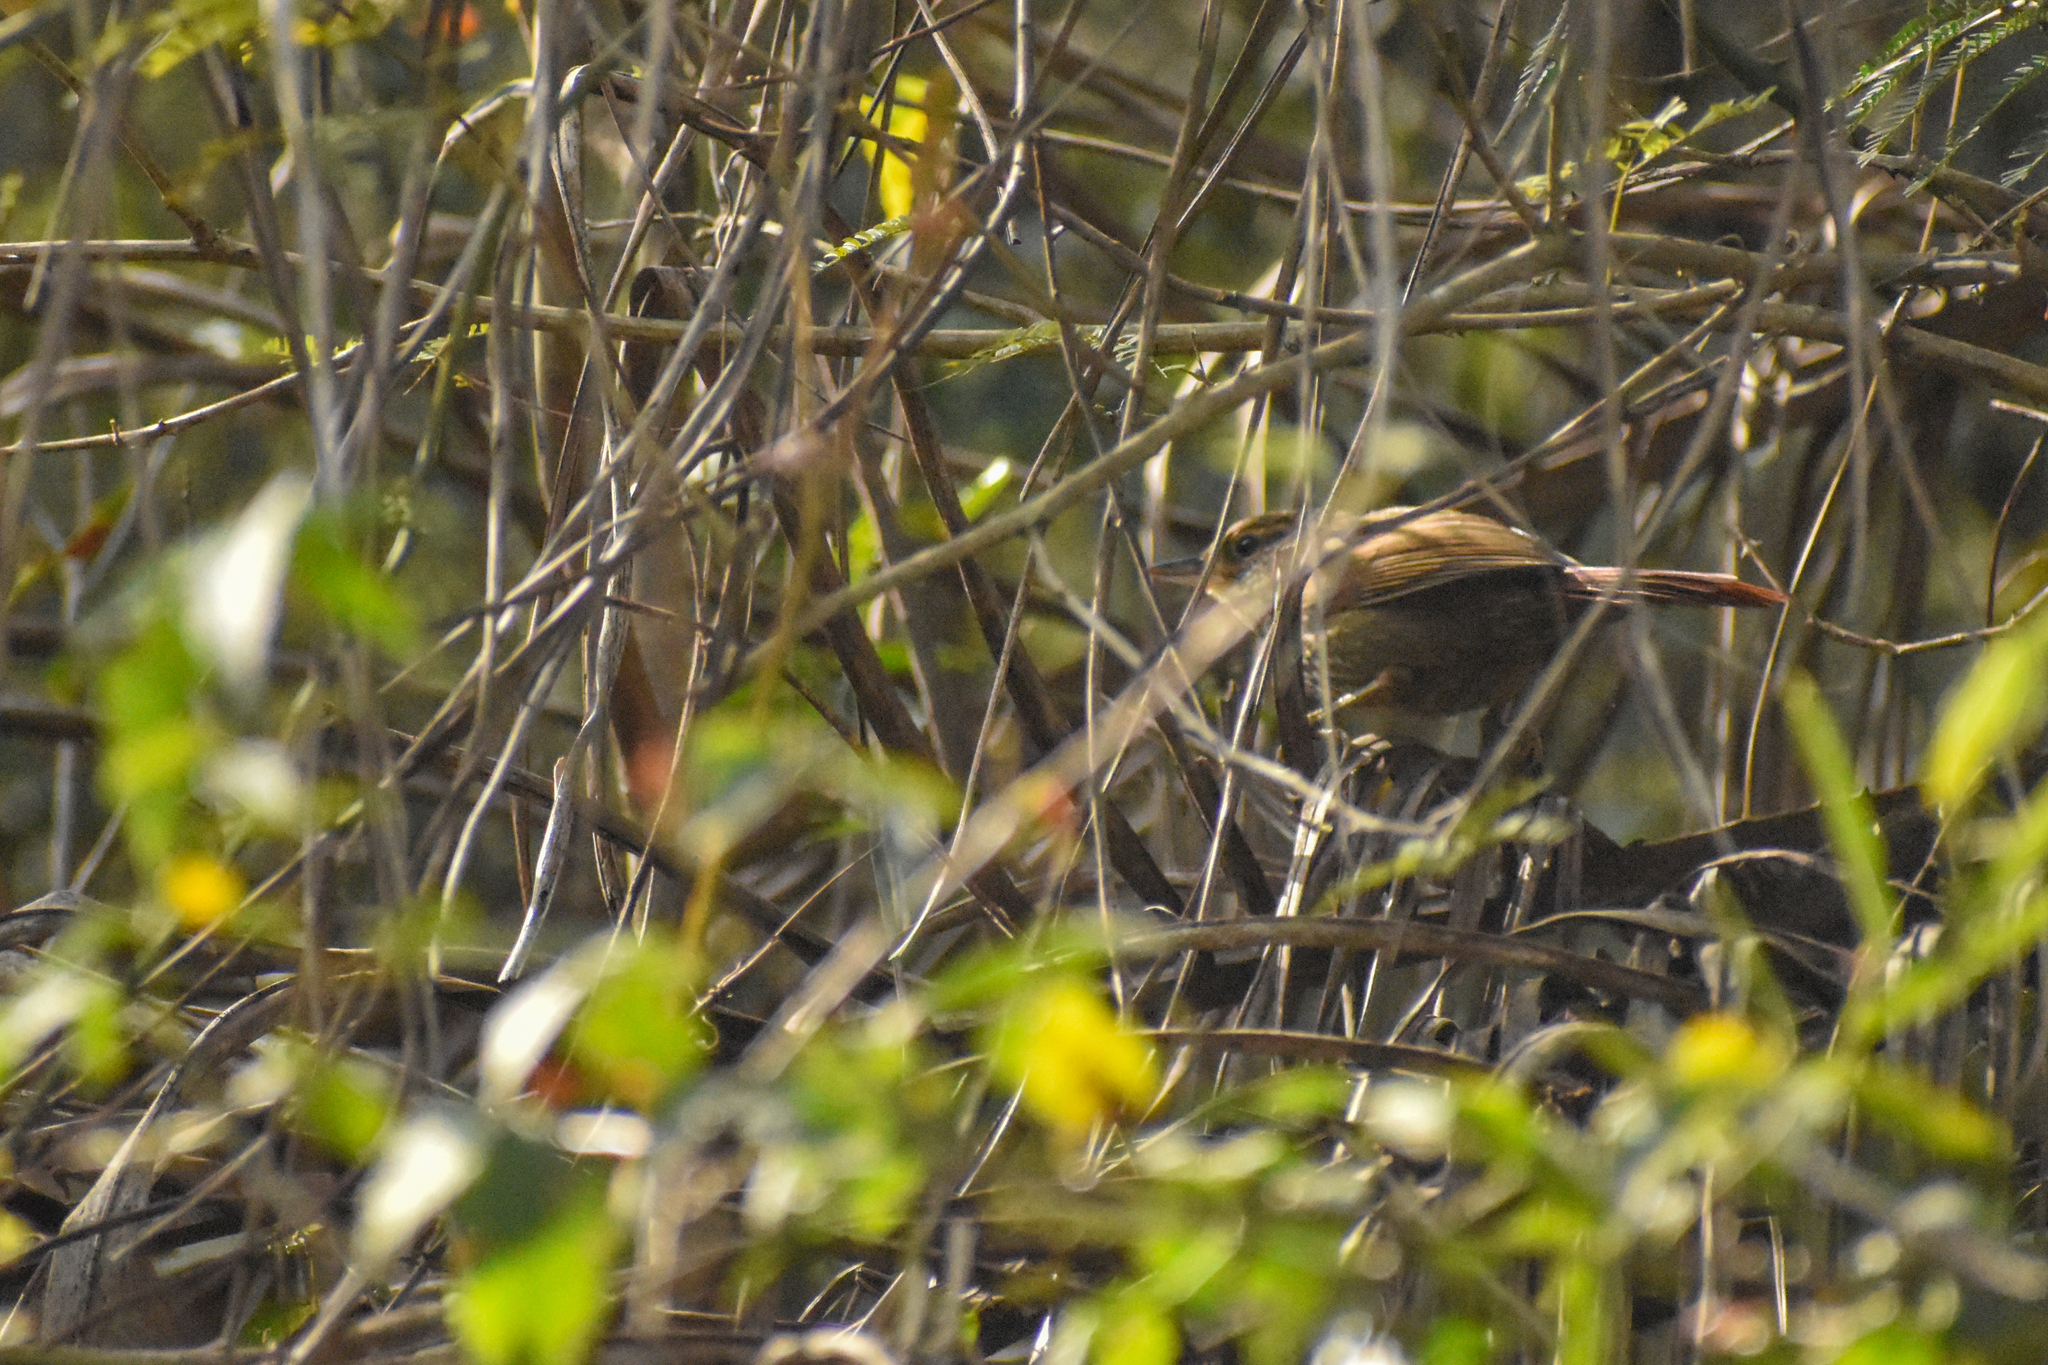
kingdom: Animalia
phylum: Chordata
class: Aves
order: Passeriformes
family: Furnariidae
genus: Syndactyla
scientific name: Syndactyla rufosuperciliata
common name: Buff-browed foliage-gleaner
